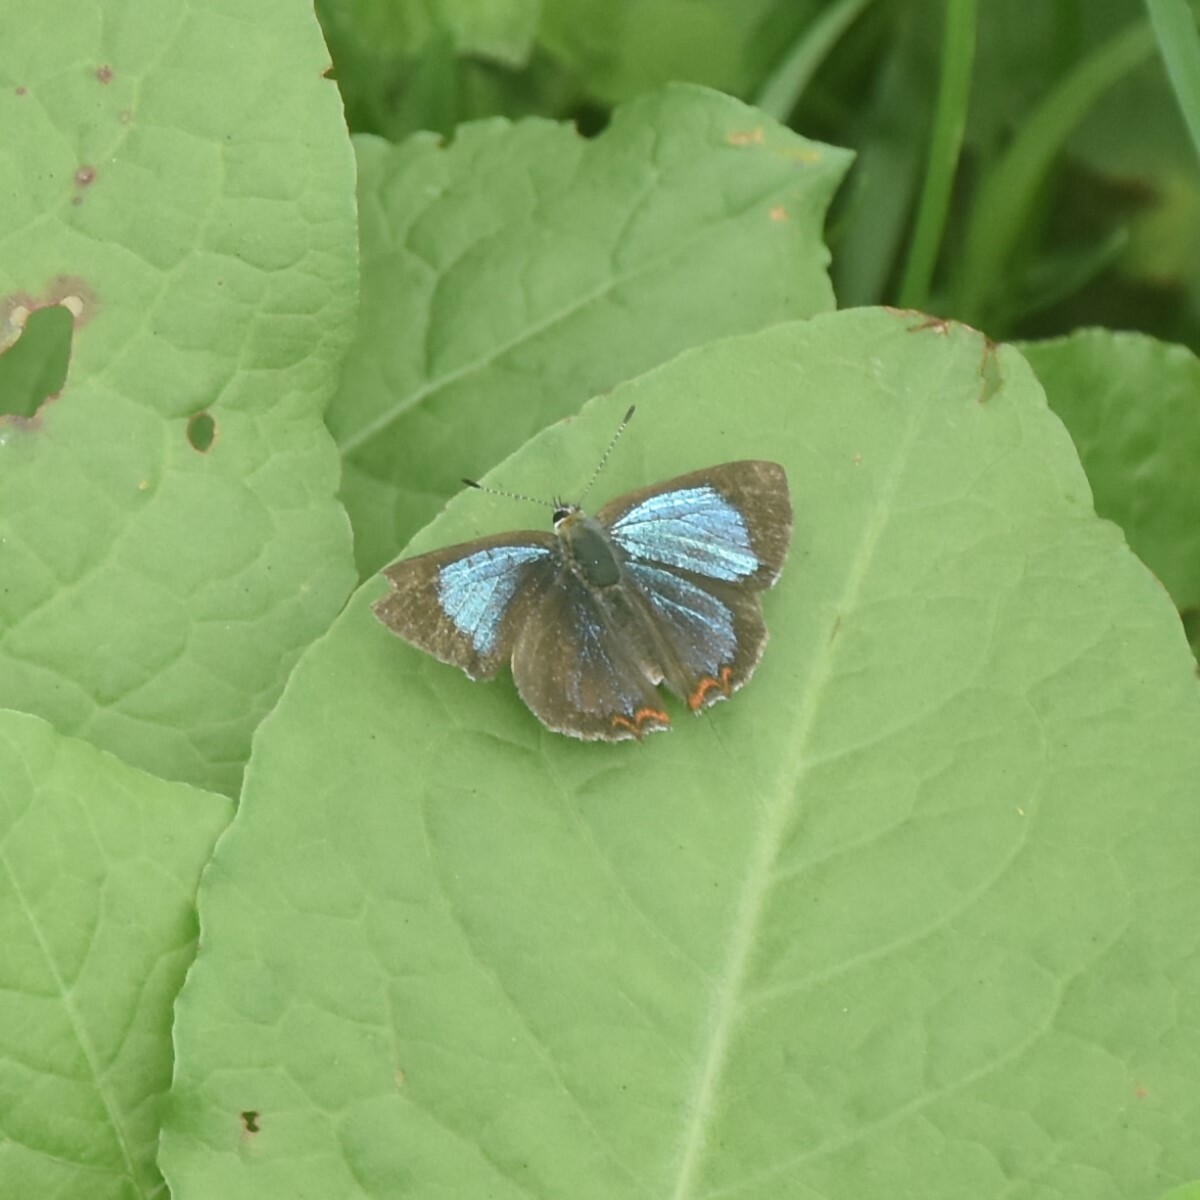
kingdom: Animalia
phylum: Arthropoda
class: Insecta
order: Lepidoptera
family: Lycaenidae
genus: Heliophorus
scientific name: Heliophorus
